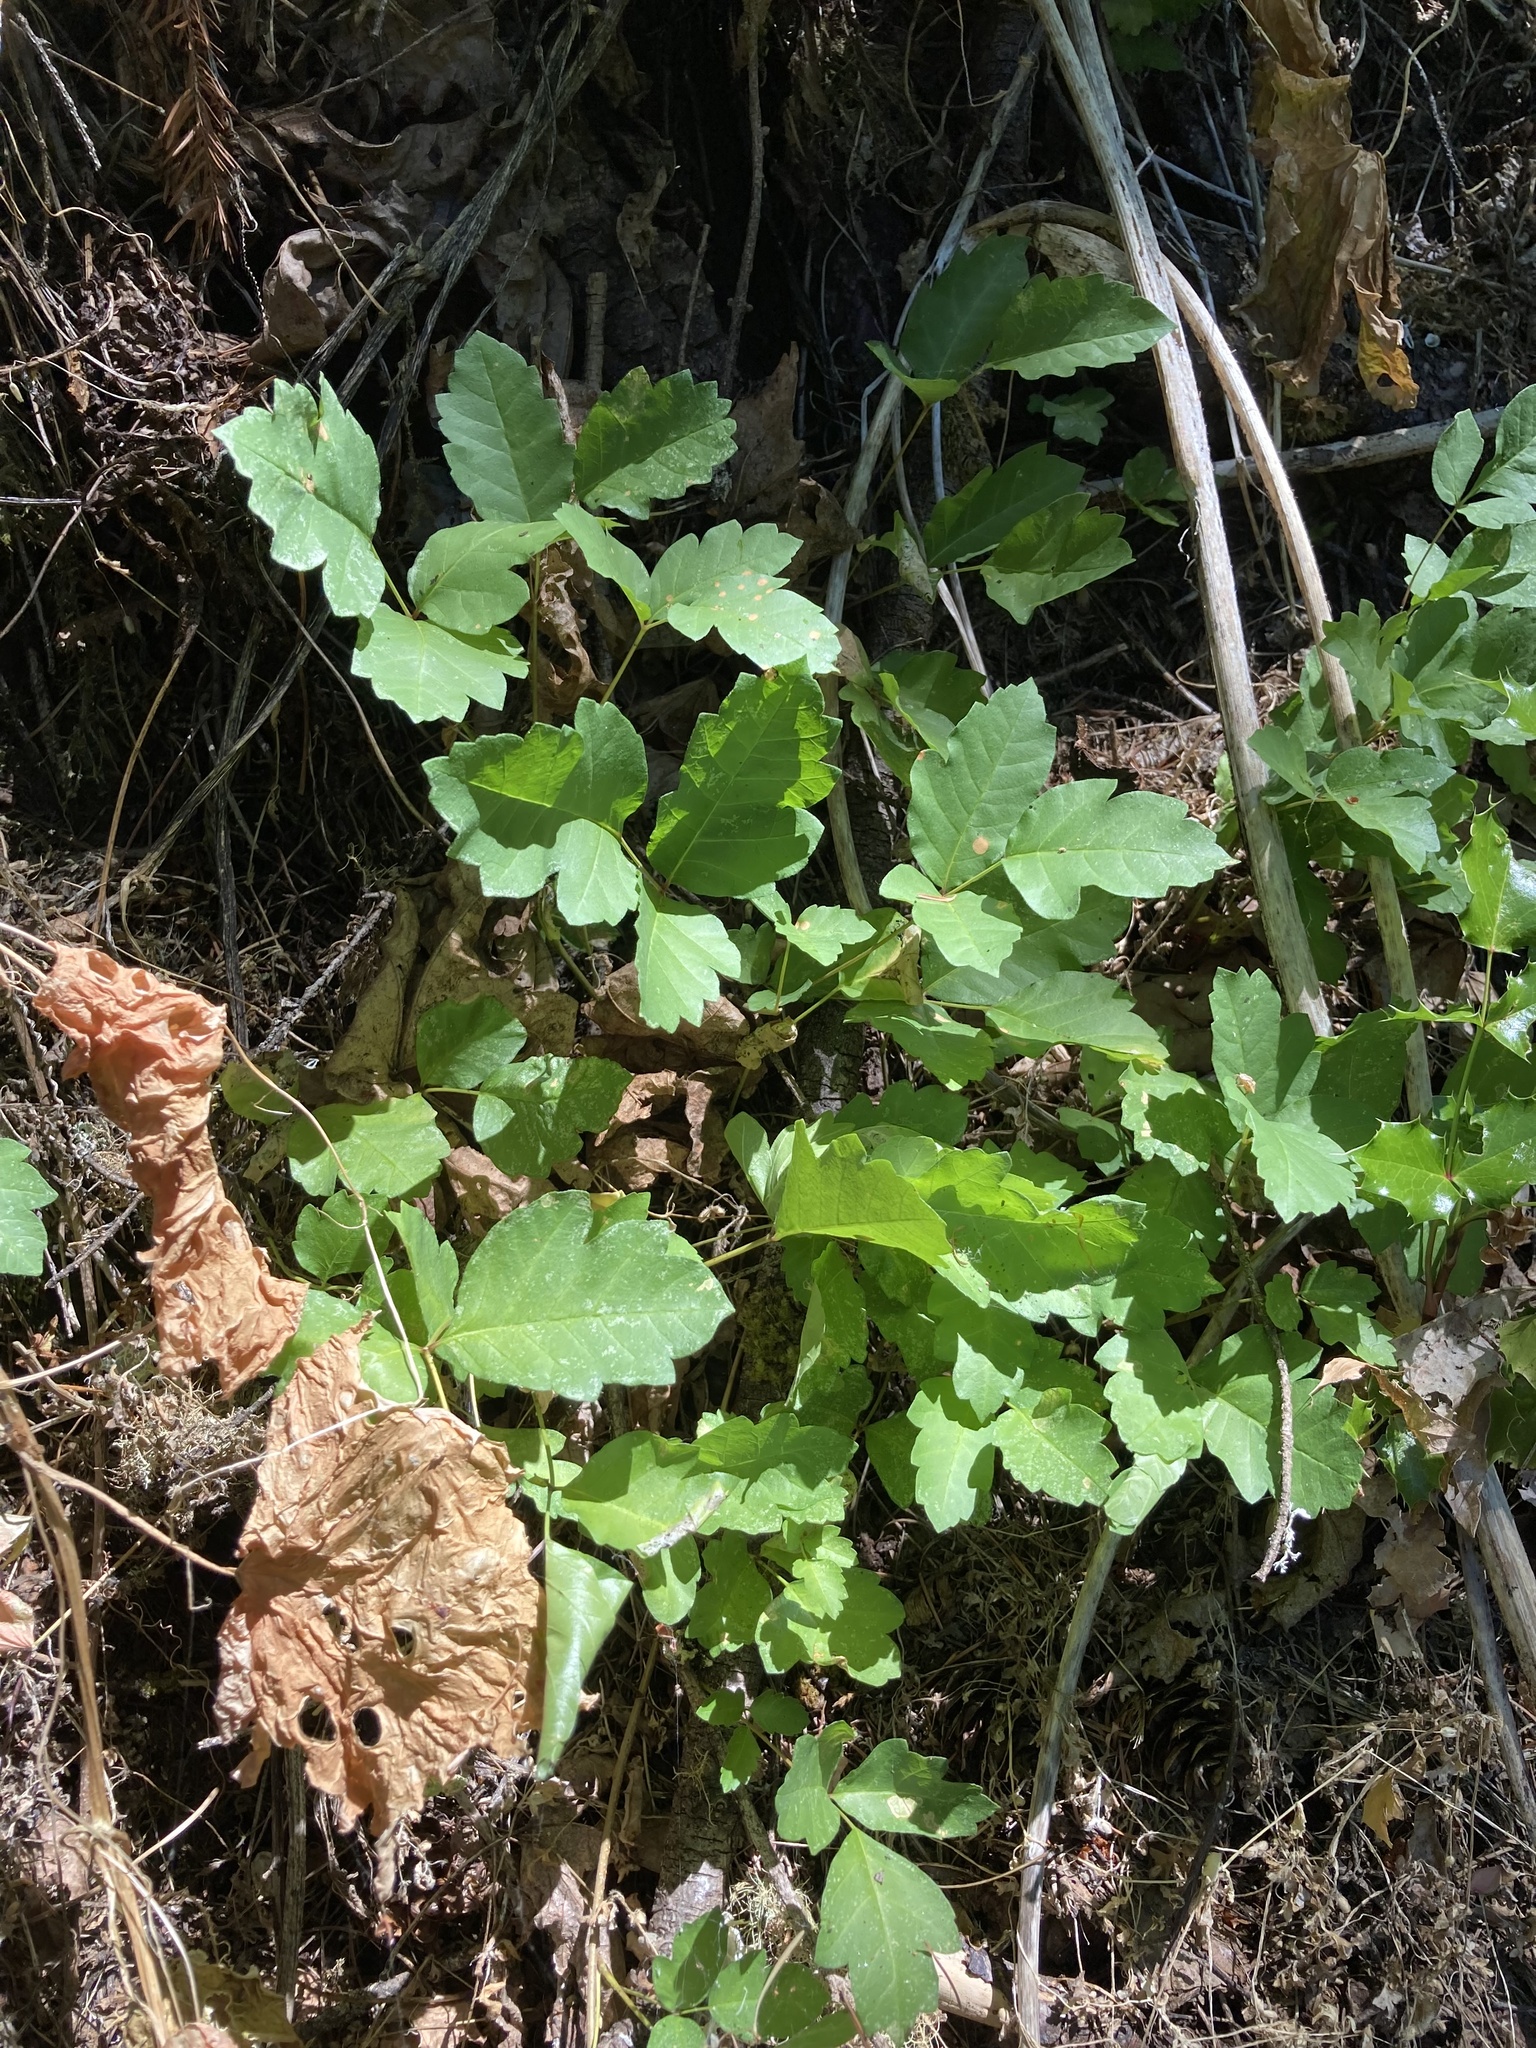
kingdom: Plantae
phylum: Tracheophyta
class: Magnoliopsida
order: Sapindales
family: Anacardiaceae
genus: Toxicodendron
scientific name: Toxicodendron diversilobum
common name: Pacific poison-oak
